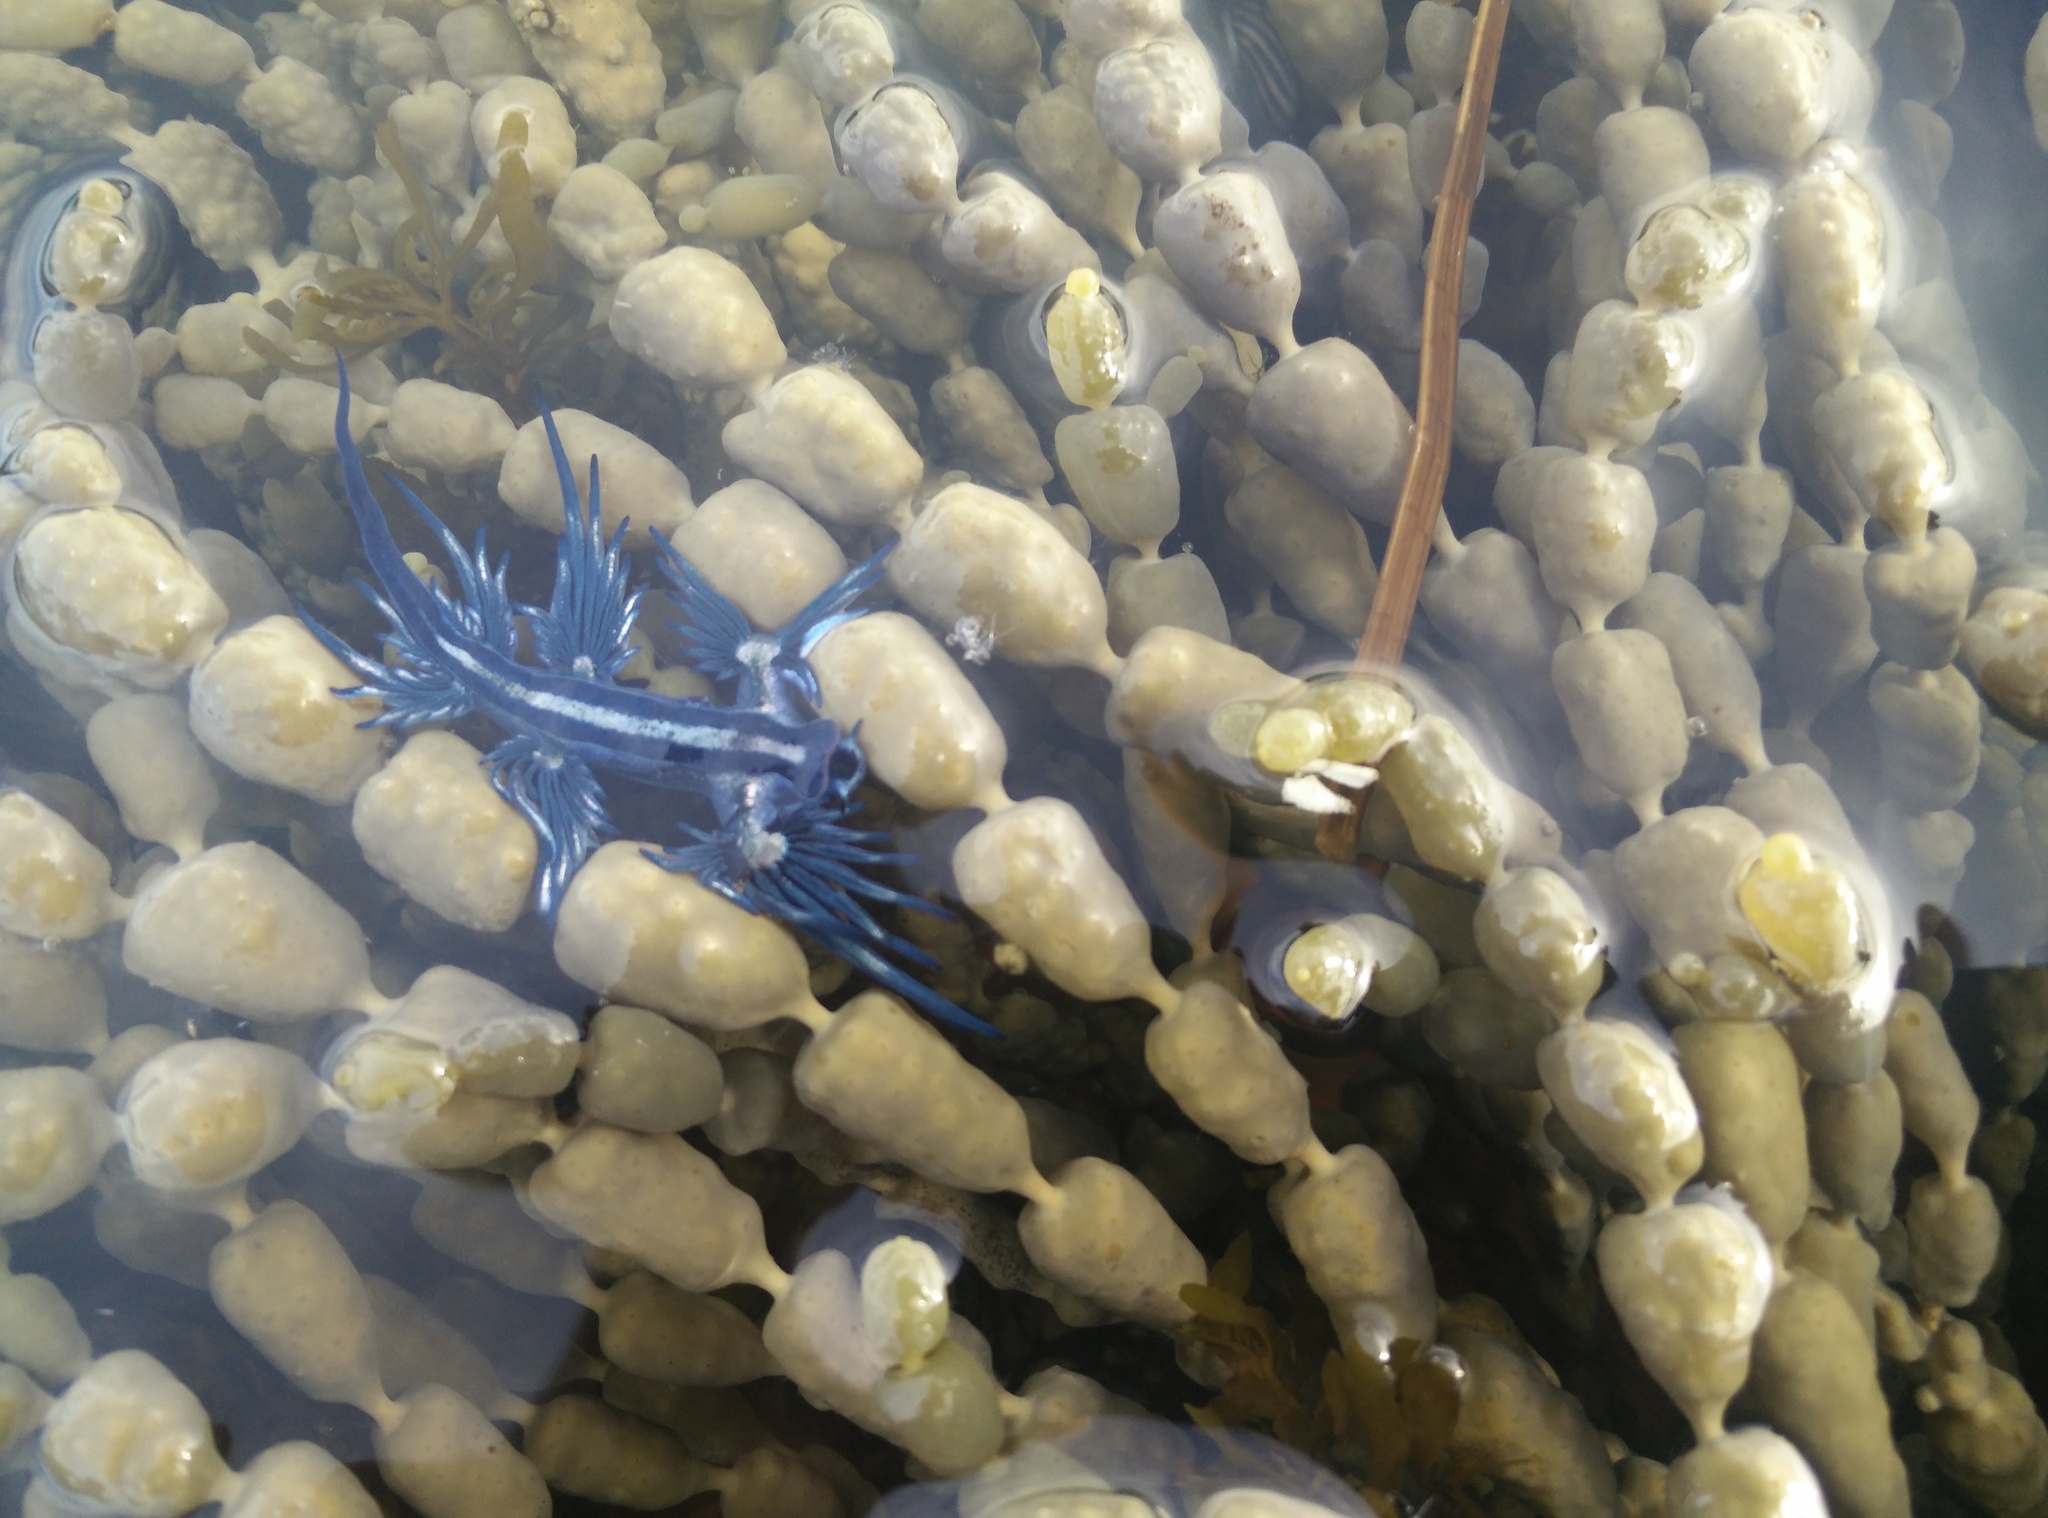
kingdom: Animalia
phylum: Mollusca
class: Gastropoda
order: Nudibranchia
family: Glaucidae
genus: Glaucus
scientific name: Glaucus atlanticus
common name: Purple ocean slug
